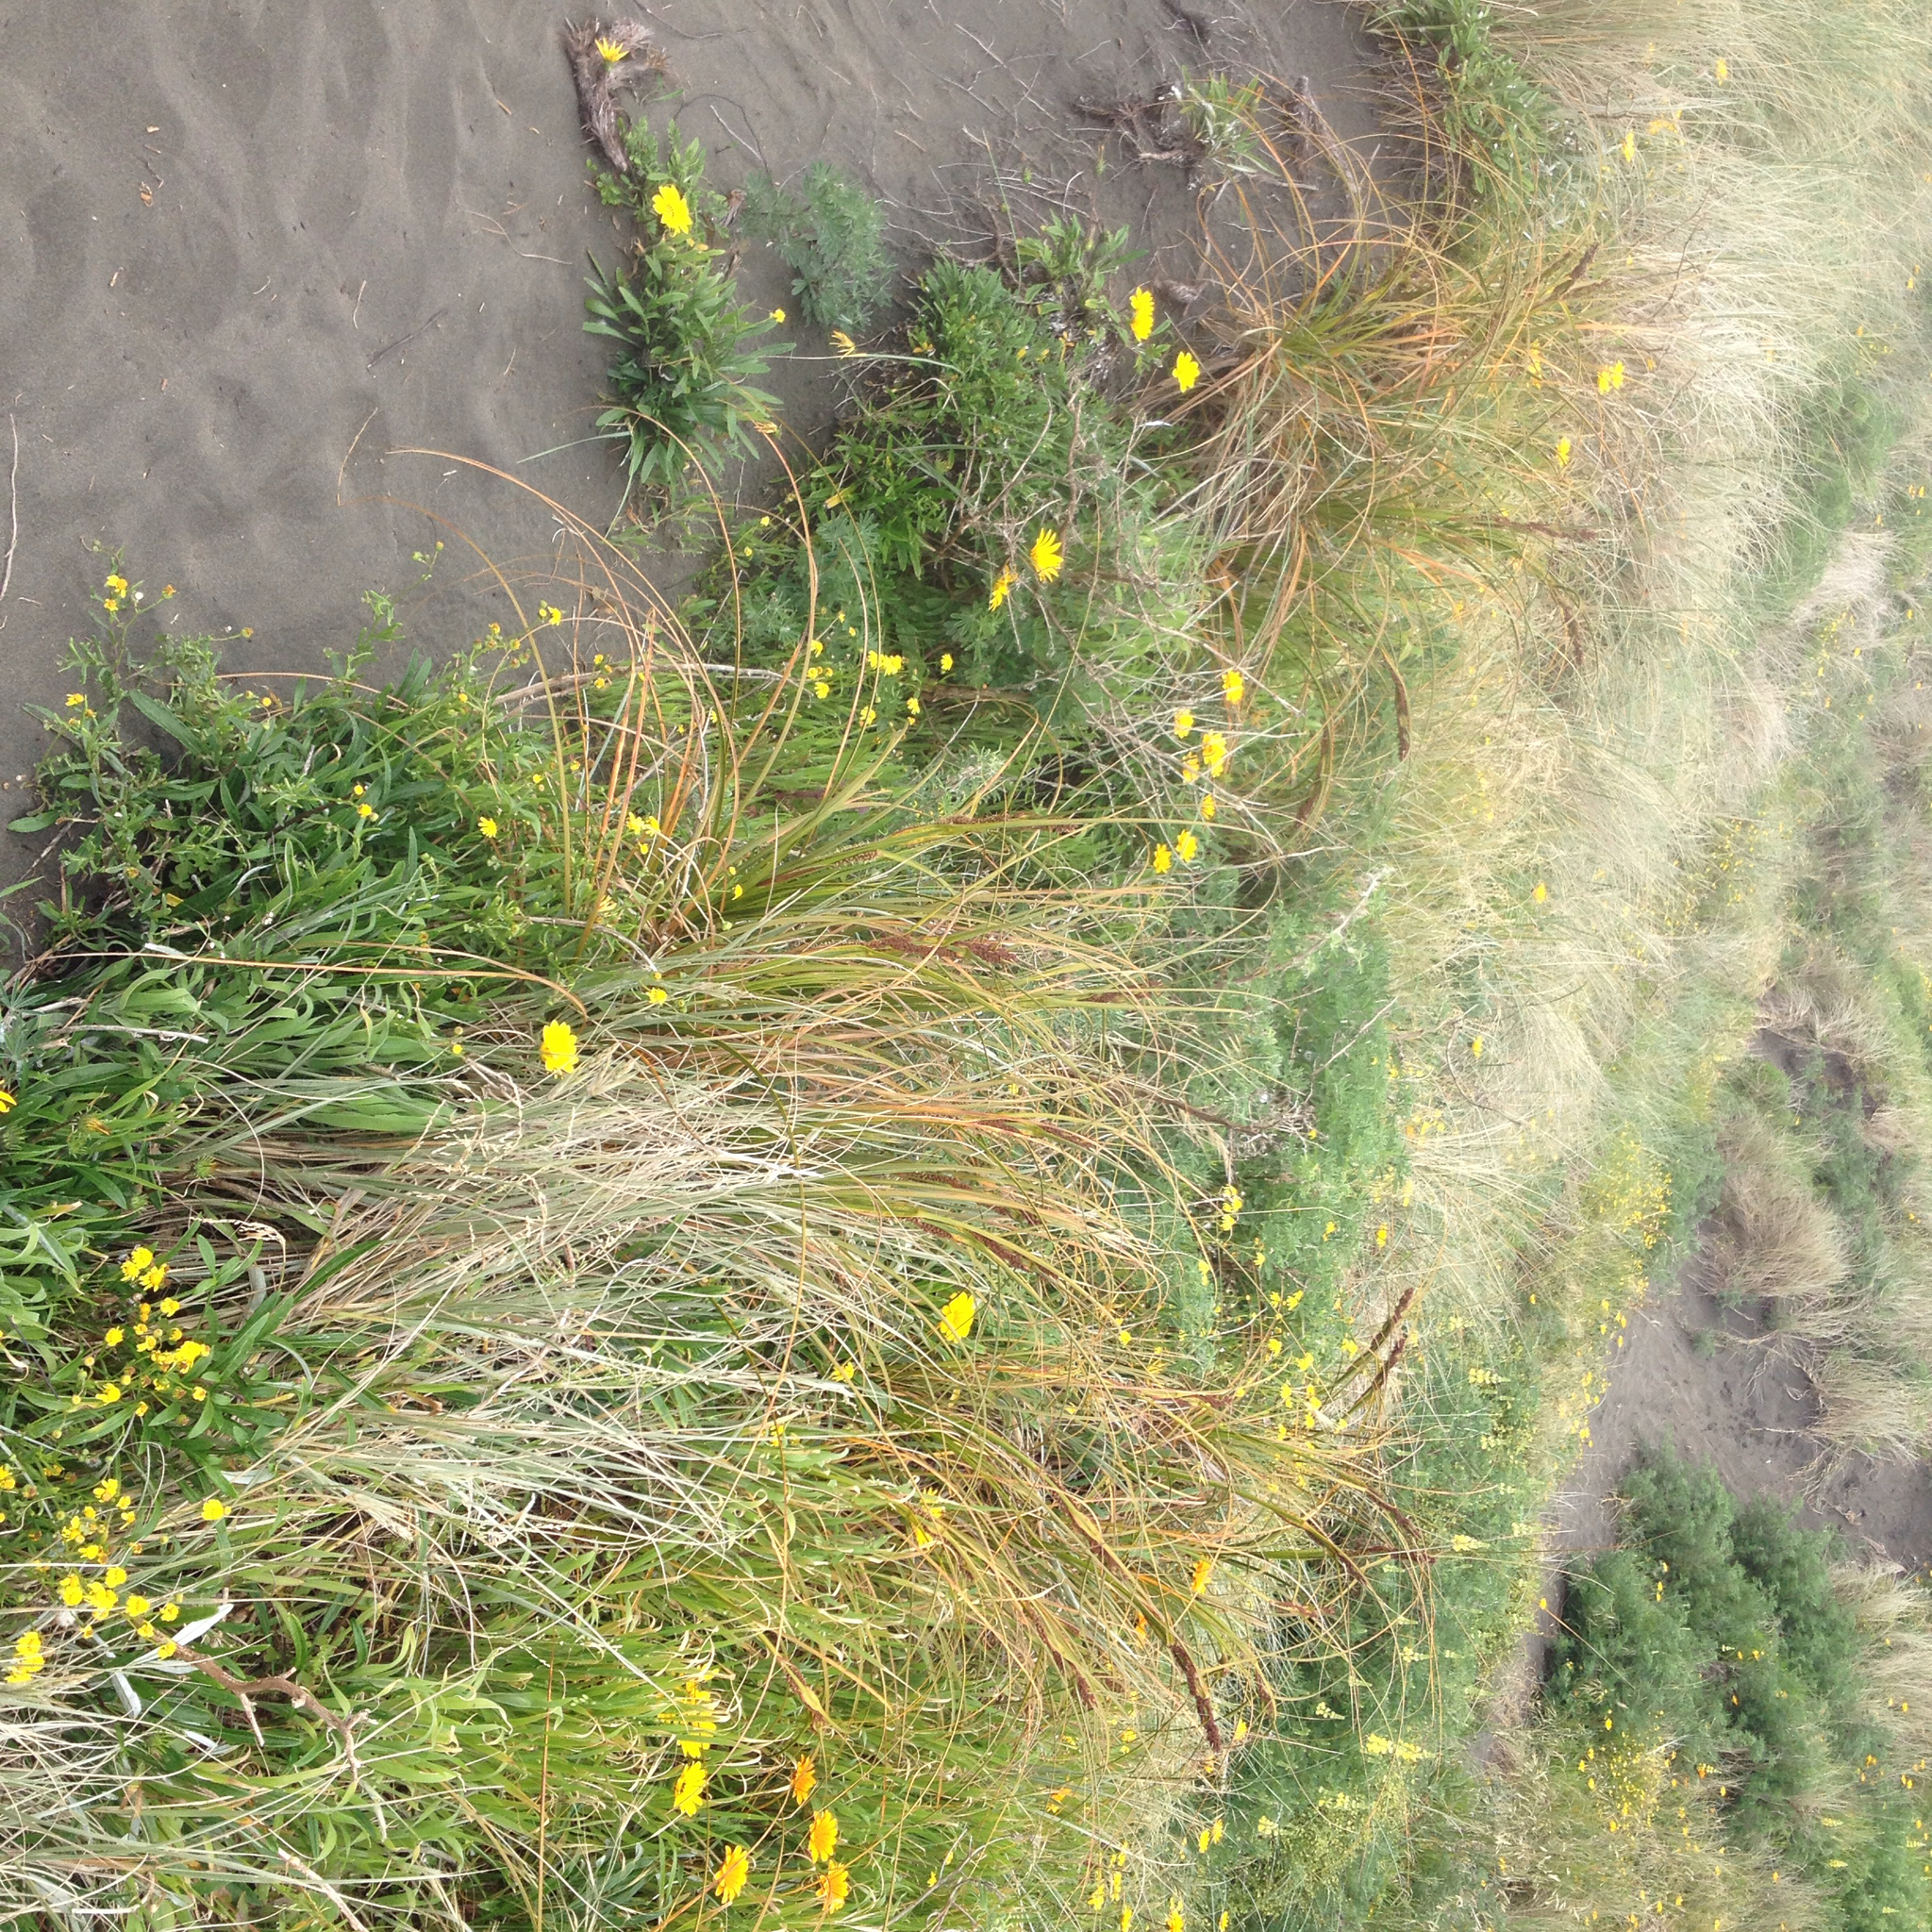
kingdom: Plantae
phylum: Tracheophyta
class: Liliopsida
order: Poales
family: Cyperaceae
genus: Ficinia
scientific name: Ficinia spiralis
